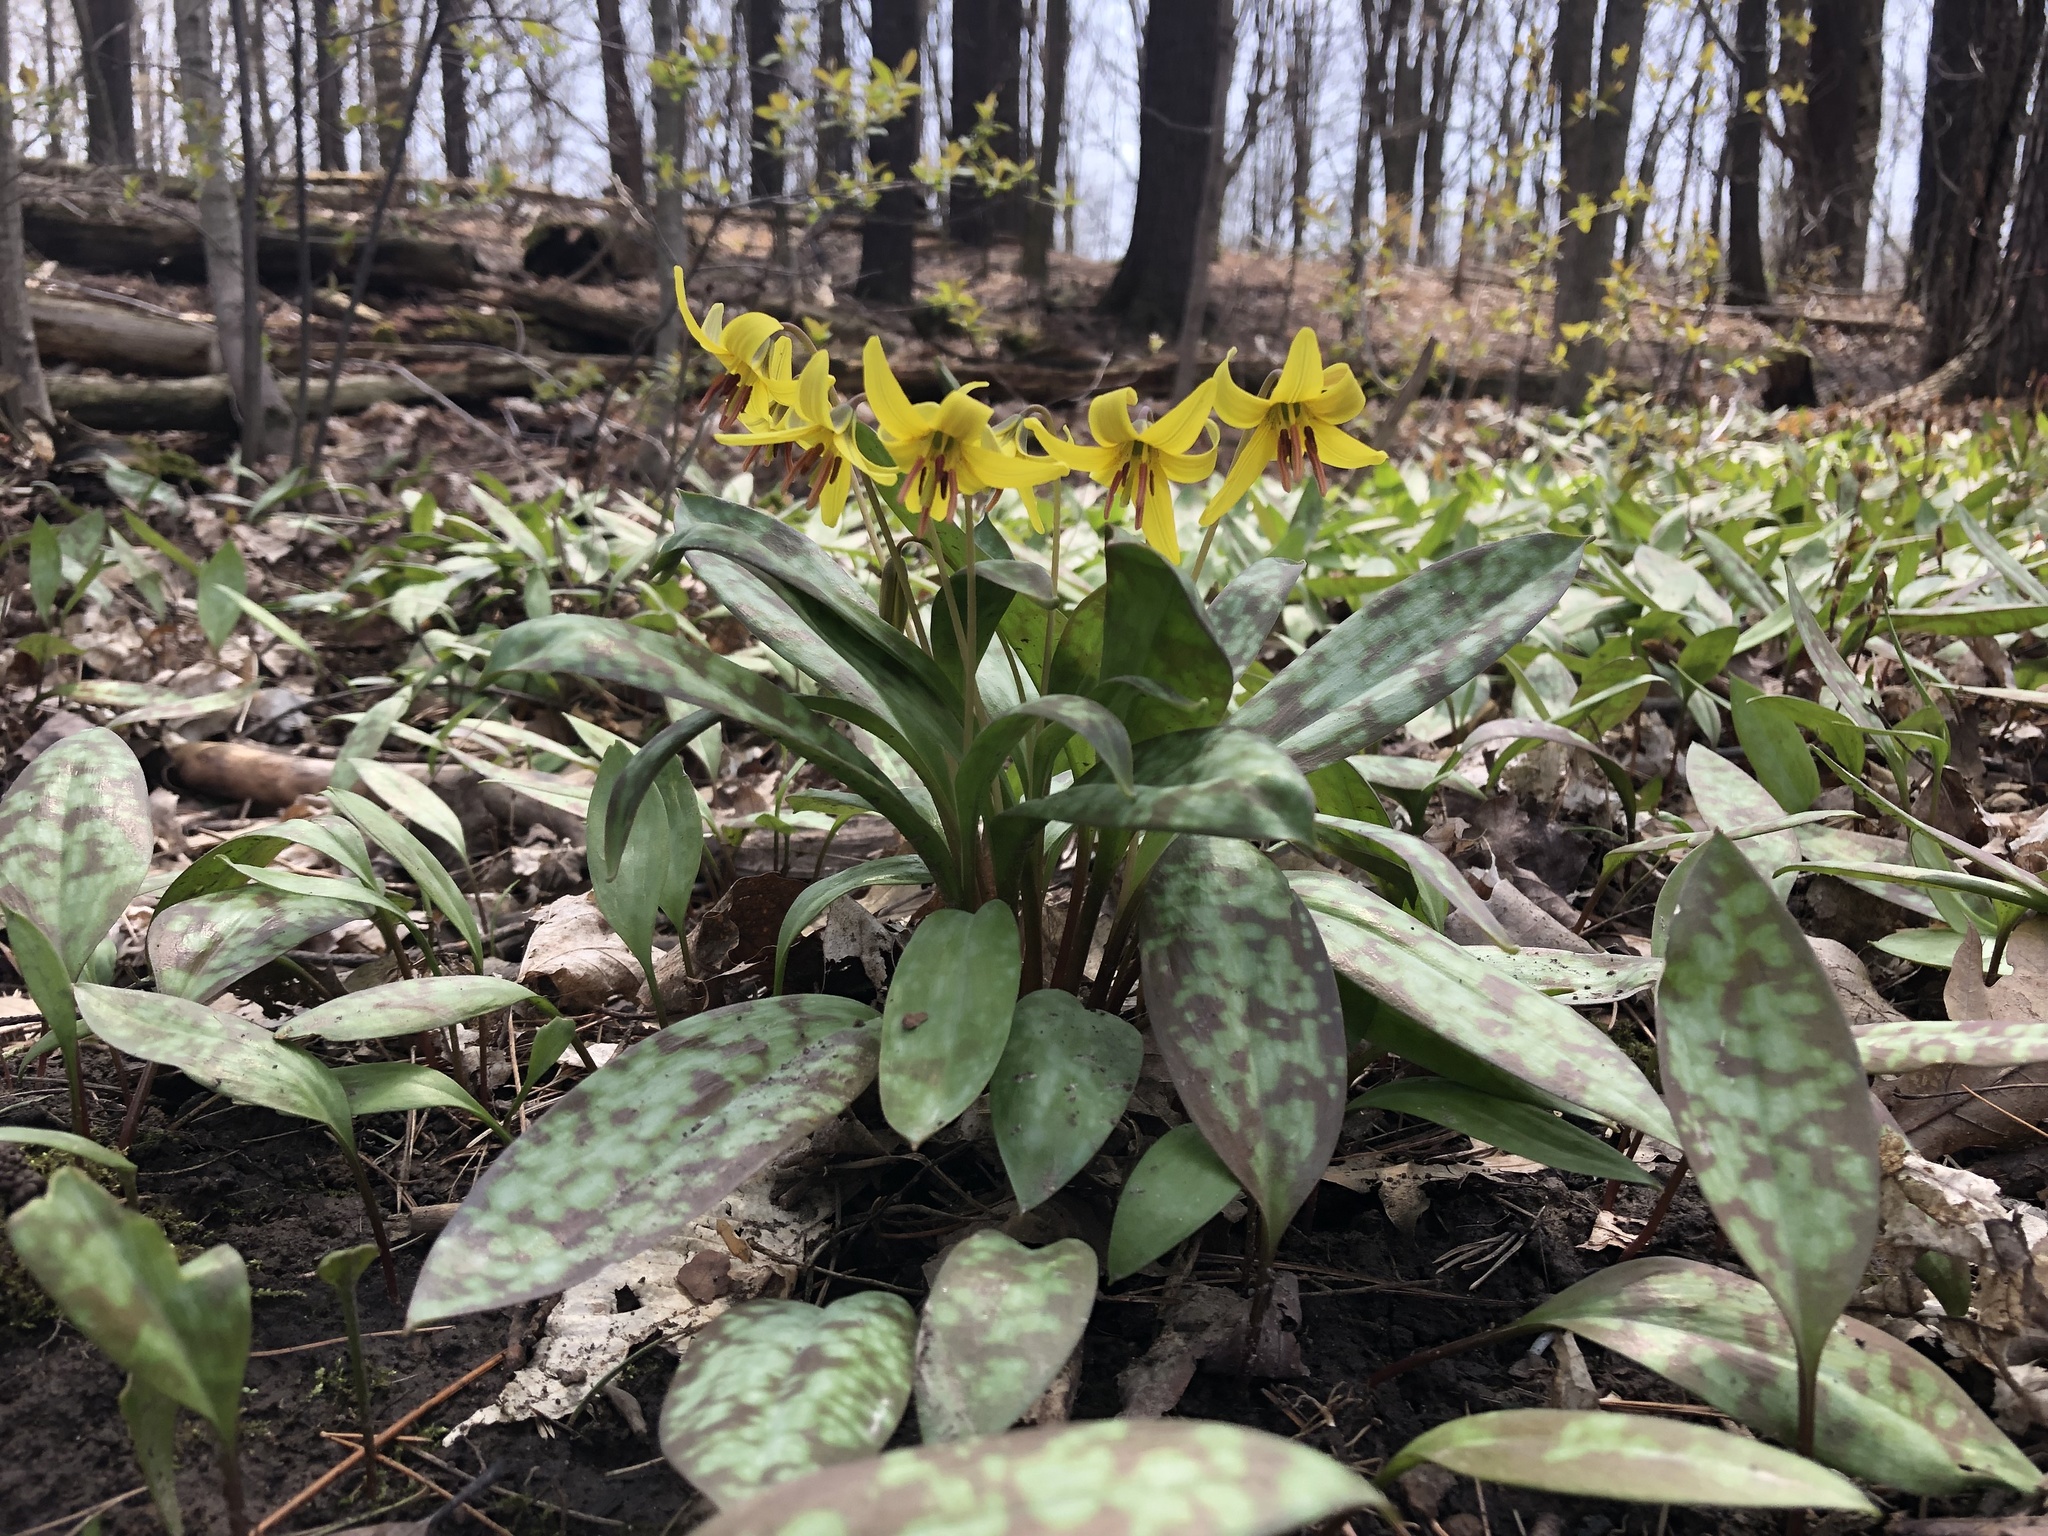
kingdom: Plantae
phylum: Tracheophyta
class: Liliopsida
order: Liliales
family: Liliaceae
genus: Erythronium
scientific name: Erythronium americanum
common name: Yellow adder's-tongue
